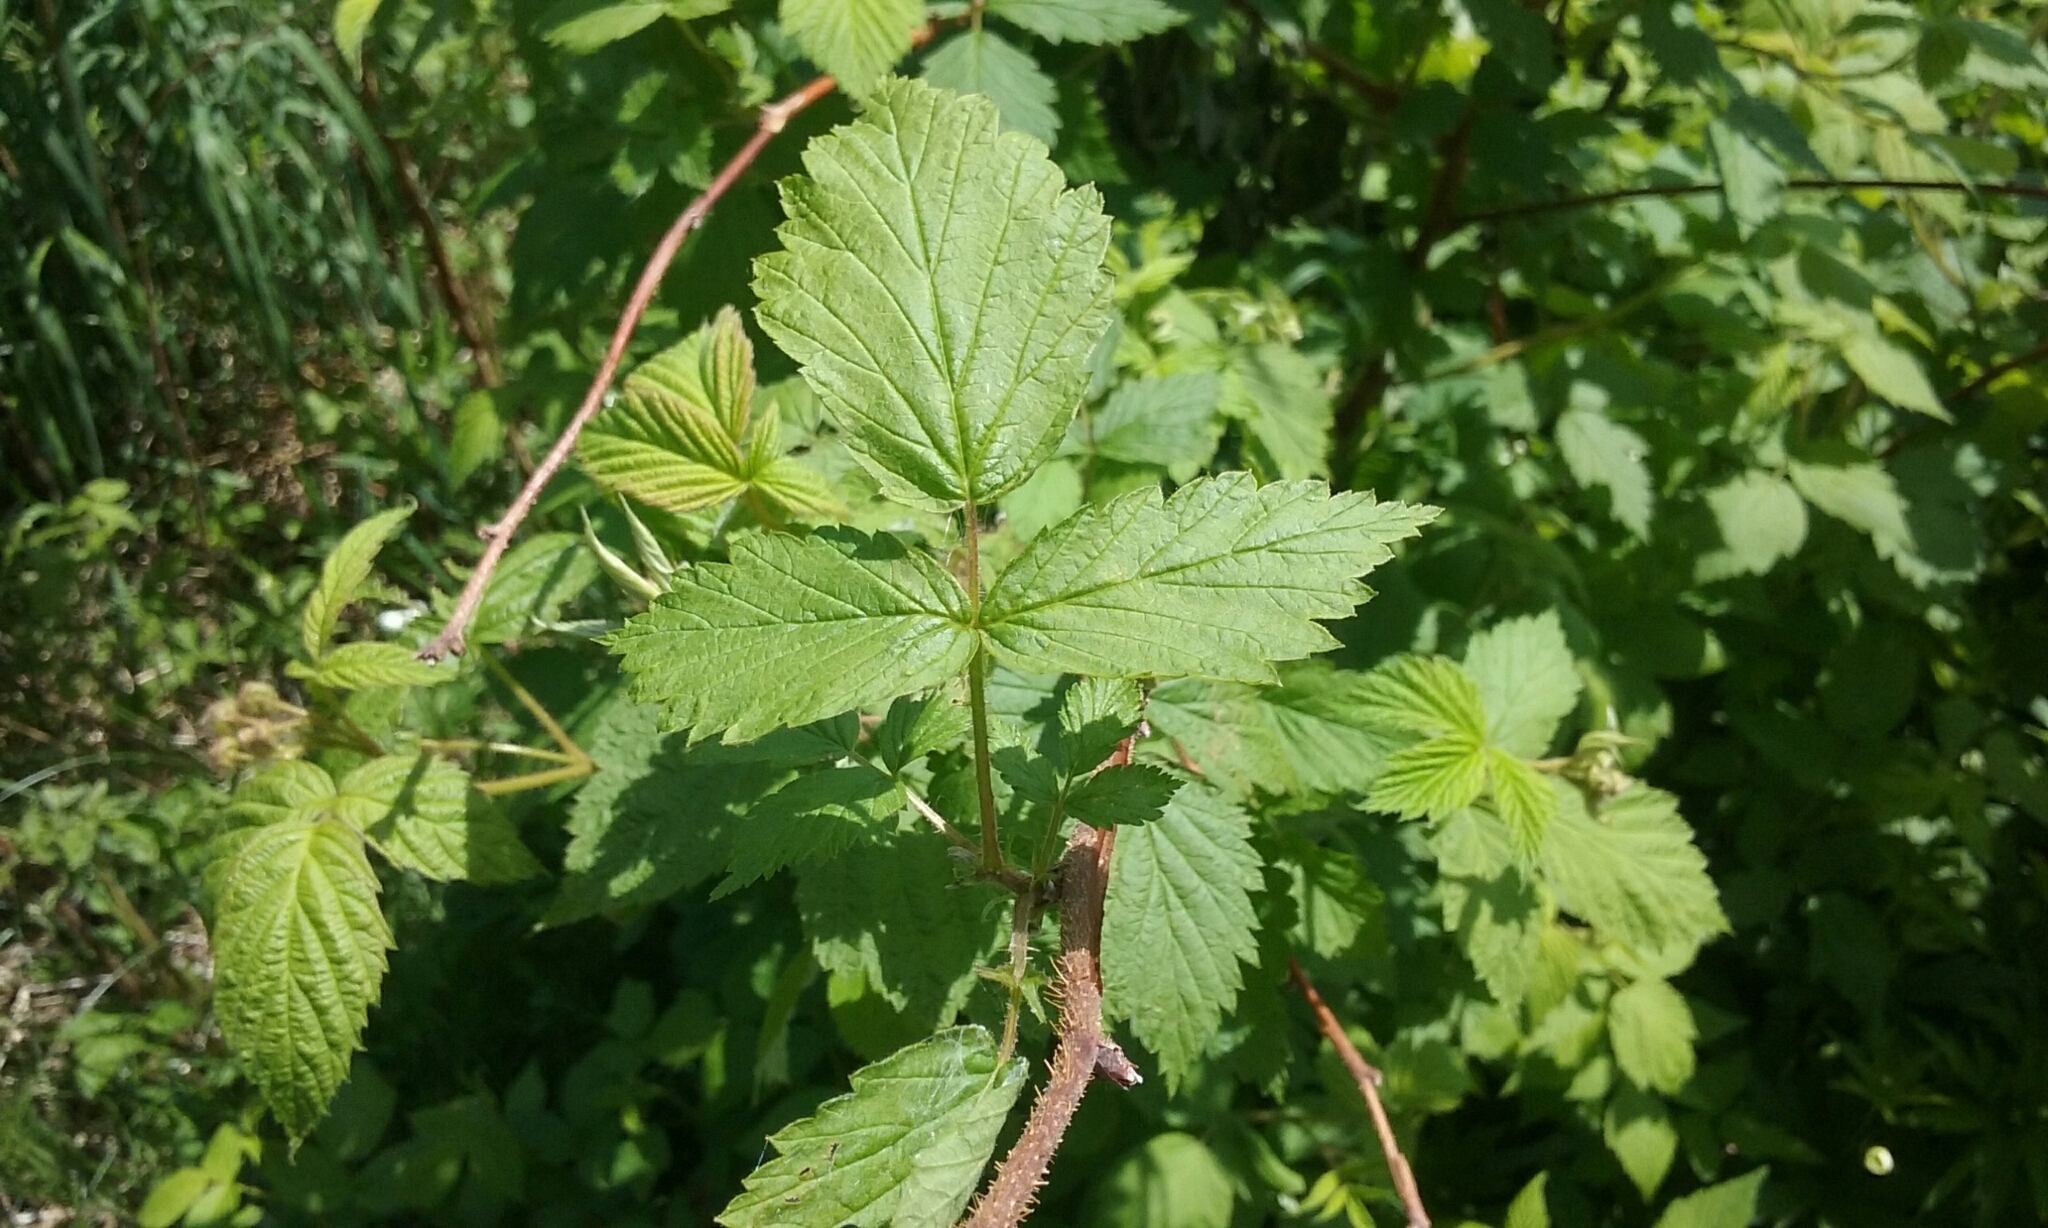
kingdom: Plantae
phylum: Tracheophyta
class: Magnoliopsida
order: Rosales
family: Rosaceae
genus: Rubus
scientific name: Rubus idaeus
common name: Raspberry
